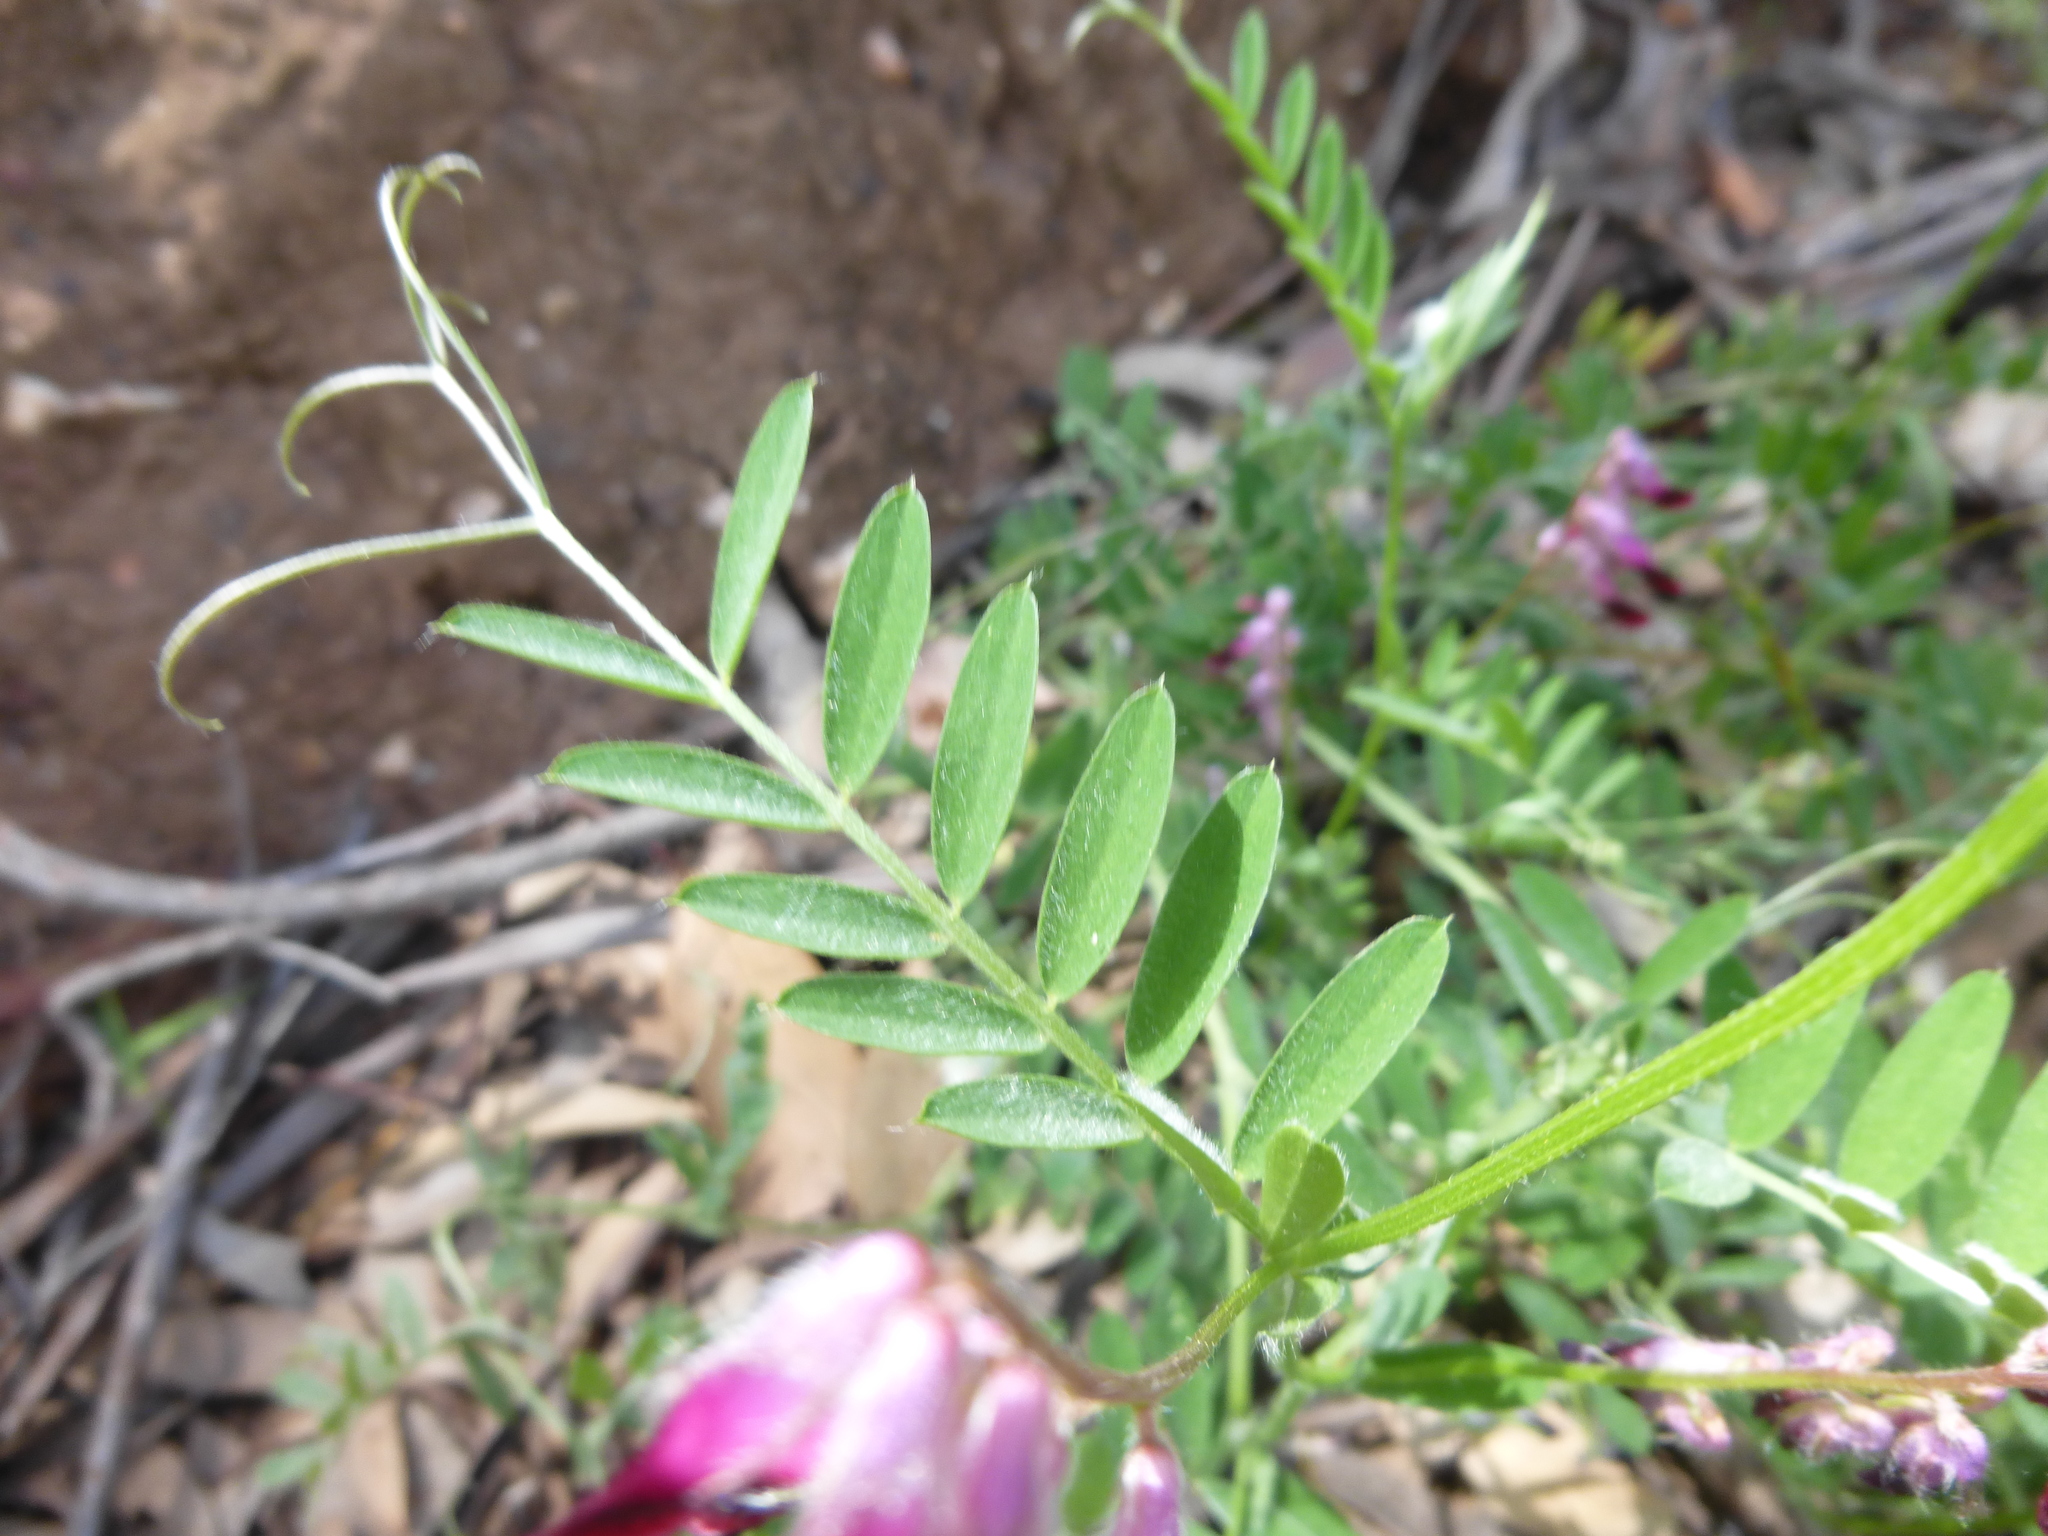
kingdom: Plantae
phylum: Tracheophyta
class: Magnoliopsida
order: Fabales
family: Fabaceae
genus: Vicia
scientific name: Vicia benghalensis
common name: Purple vetch
